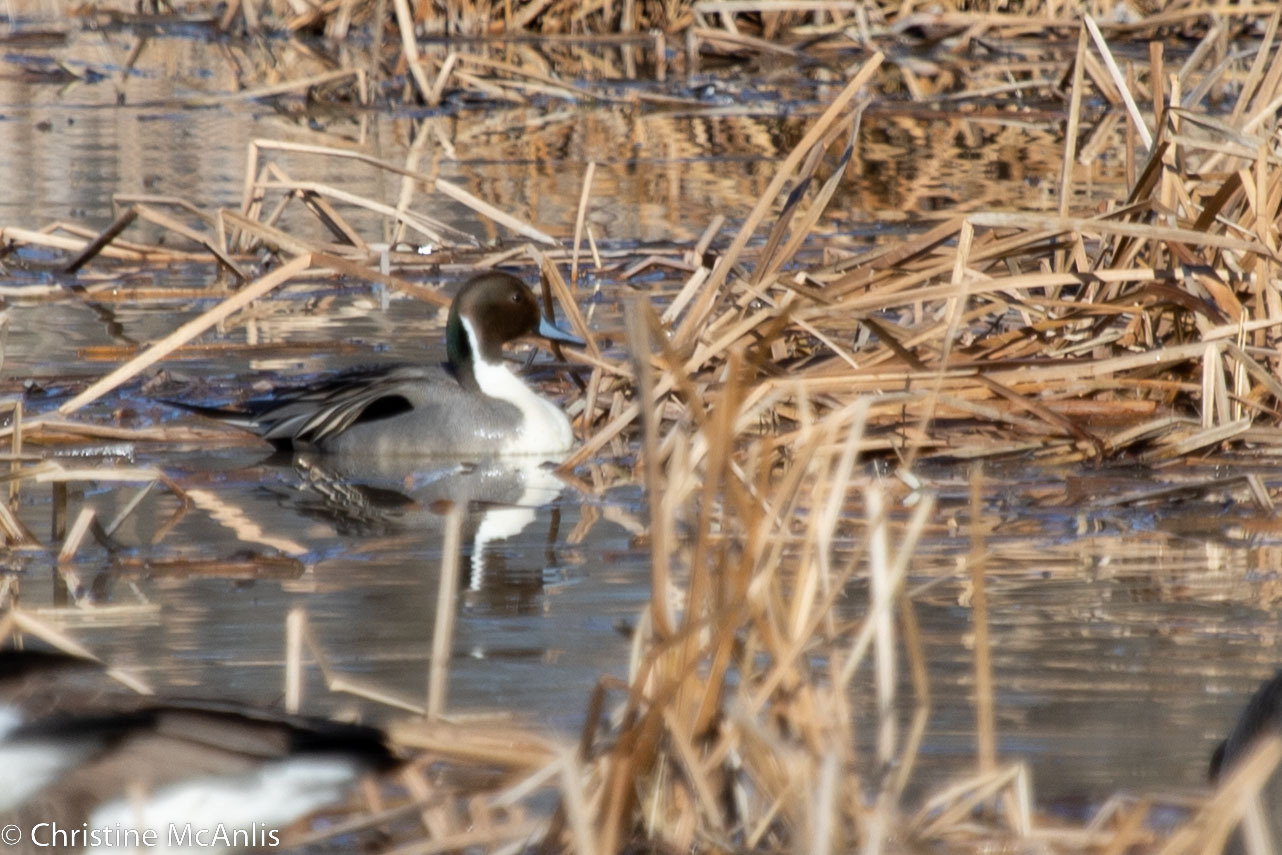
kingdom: Animalia
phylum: Chordata
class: Aves
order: Anseriformes
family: Anatidae
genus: Anas
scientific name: Anas acuta
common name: Northern pintail
